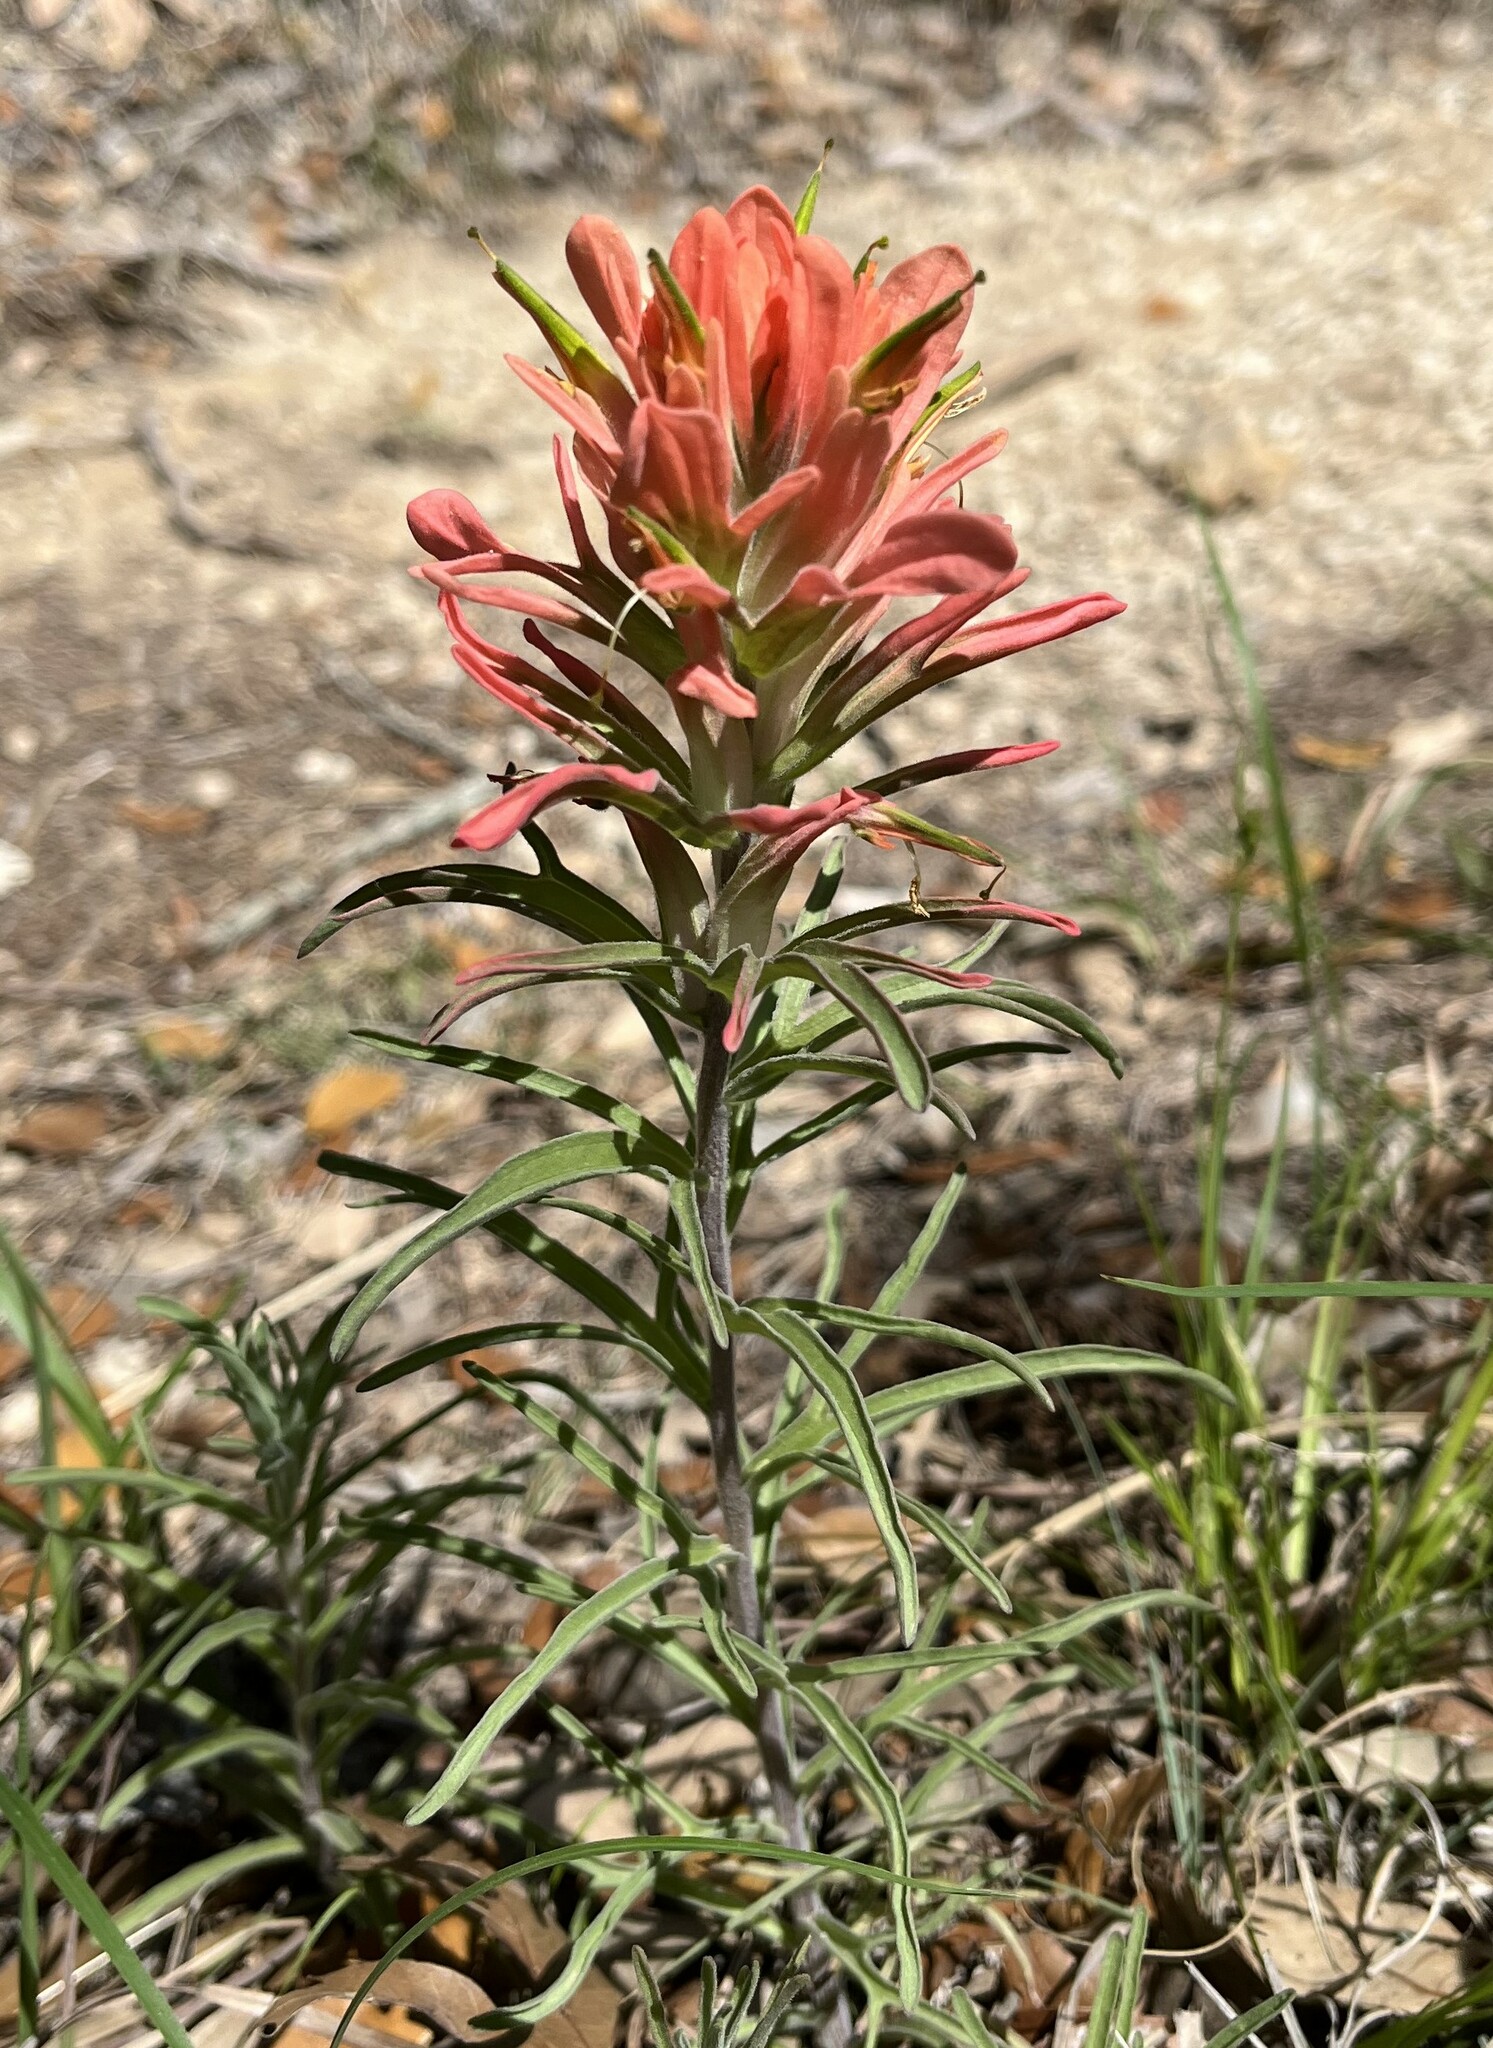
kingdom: Plantae
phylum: Tracheophyta
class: Magnoliopsida
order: Lamiales
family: Orobanchaceae
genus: Castilleja
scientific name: Castilleja lindheimeri
